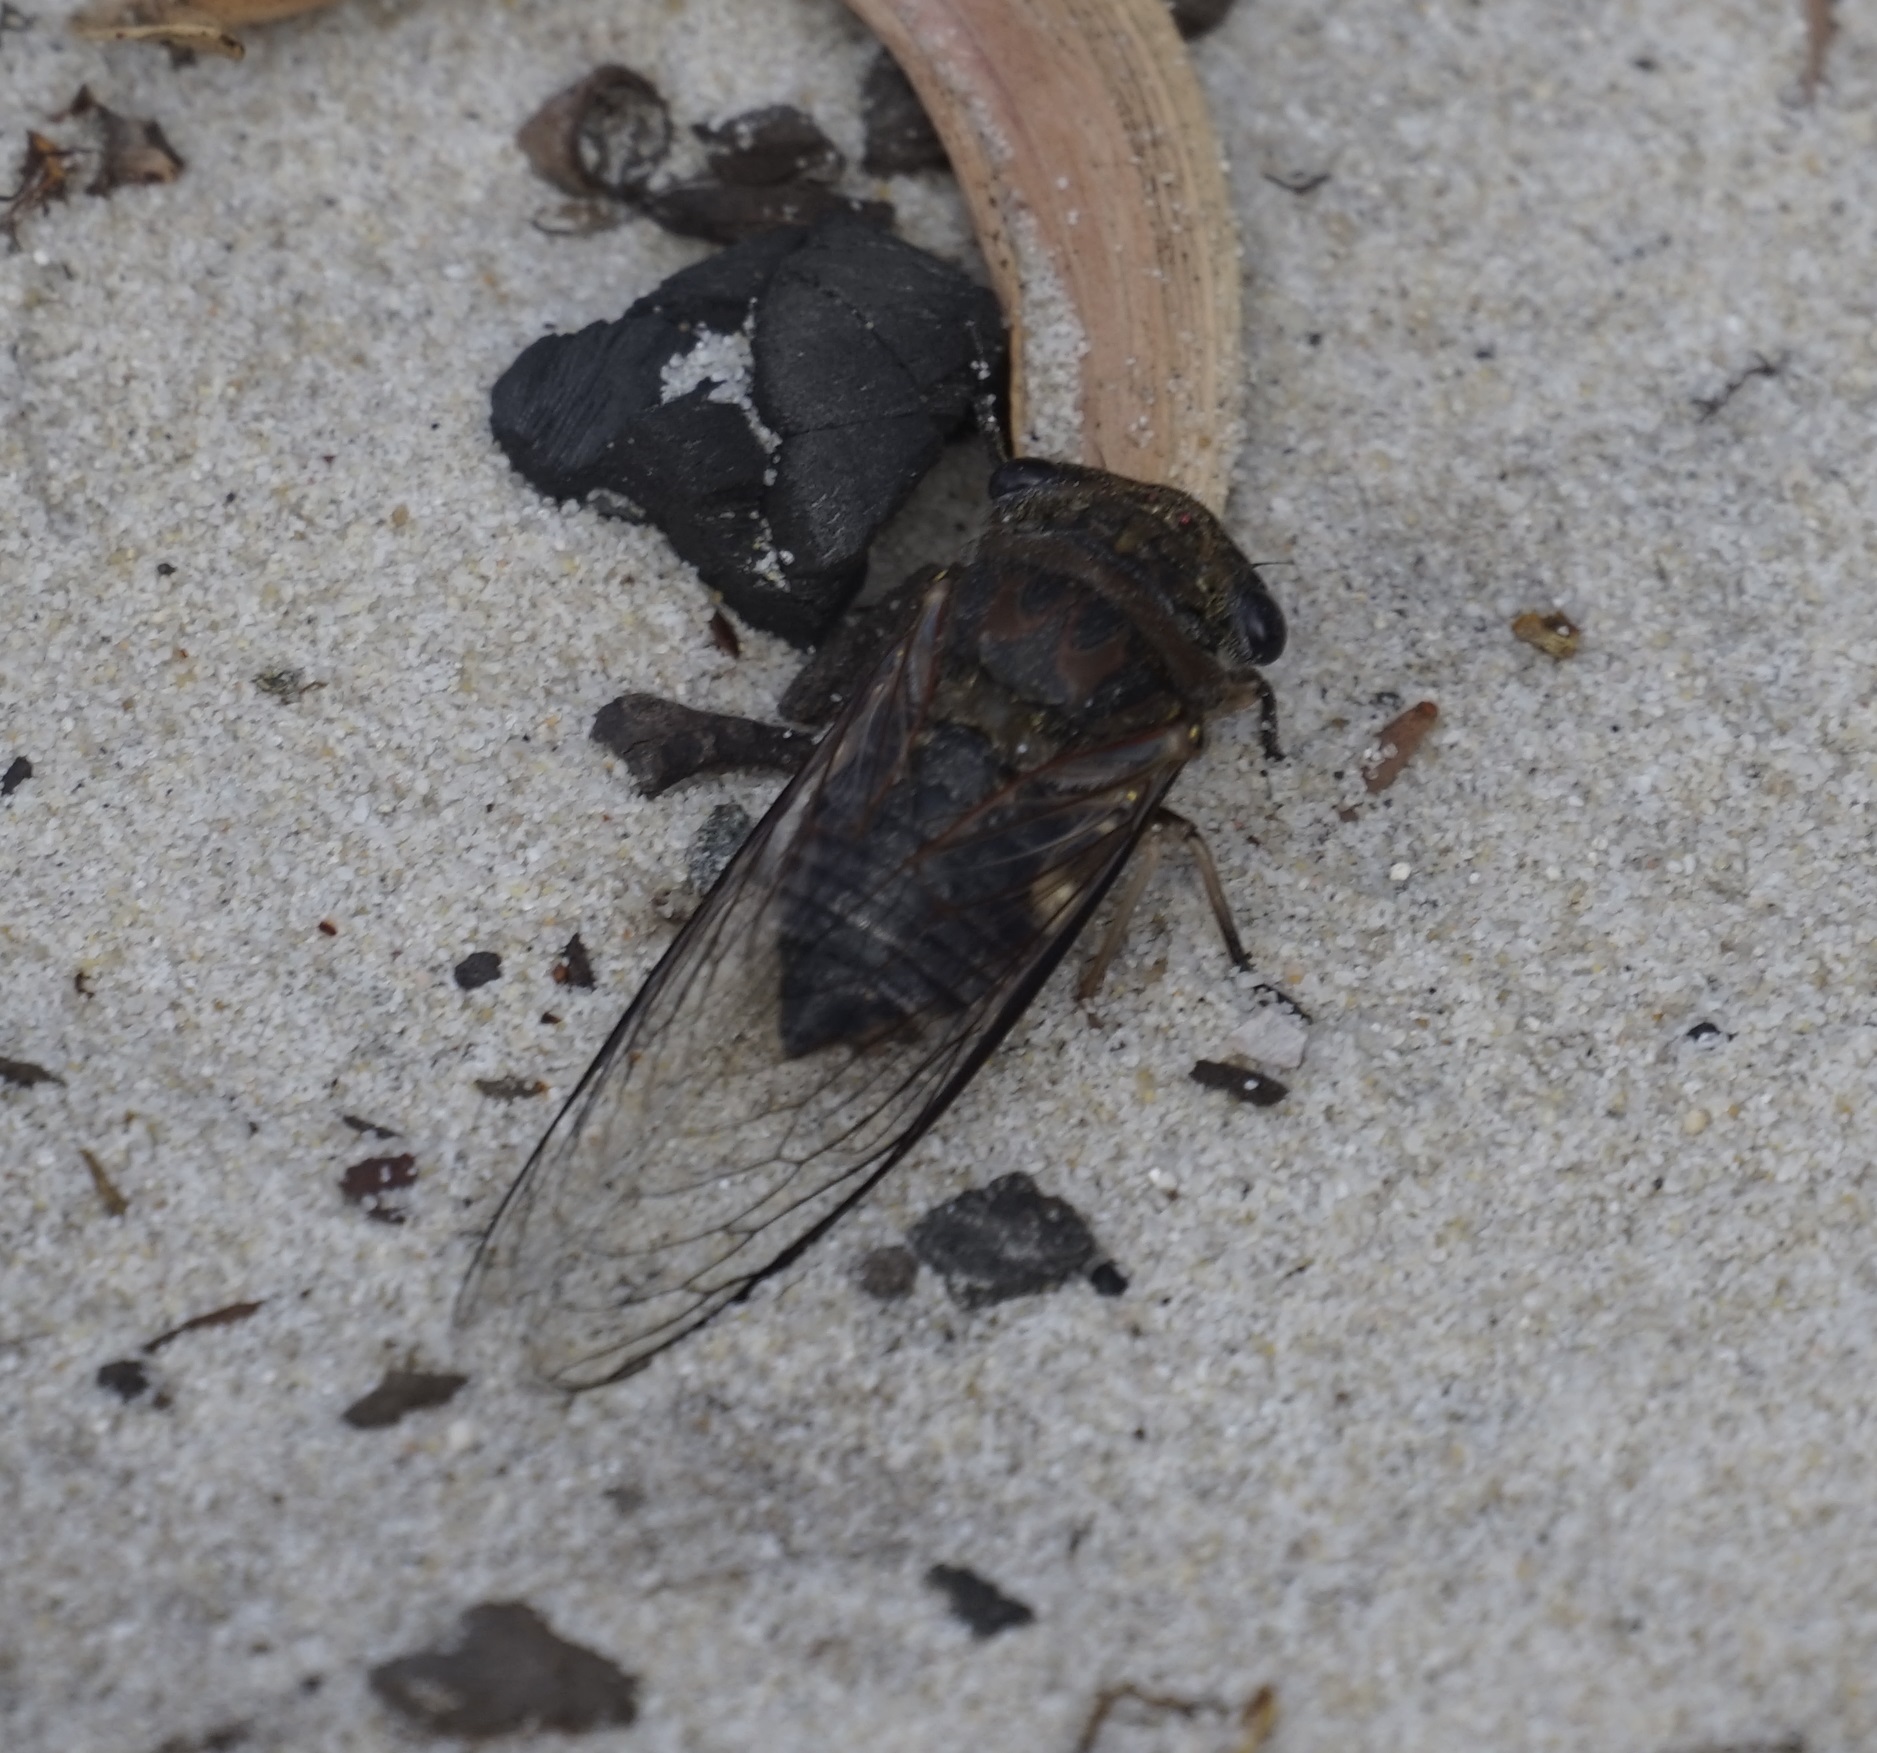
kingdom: Animalia
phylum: Arthropoda
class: Insecta
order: Hemiptera
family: Cicadidae
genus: Psaltoda
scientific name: Psaltoda harrisii
